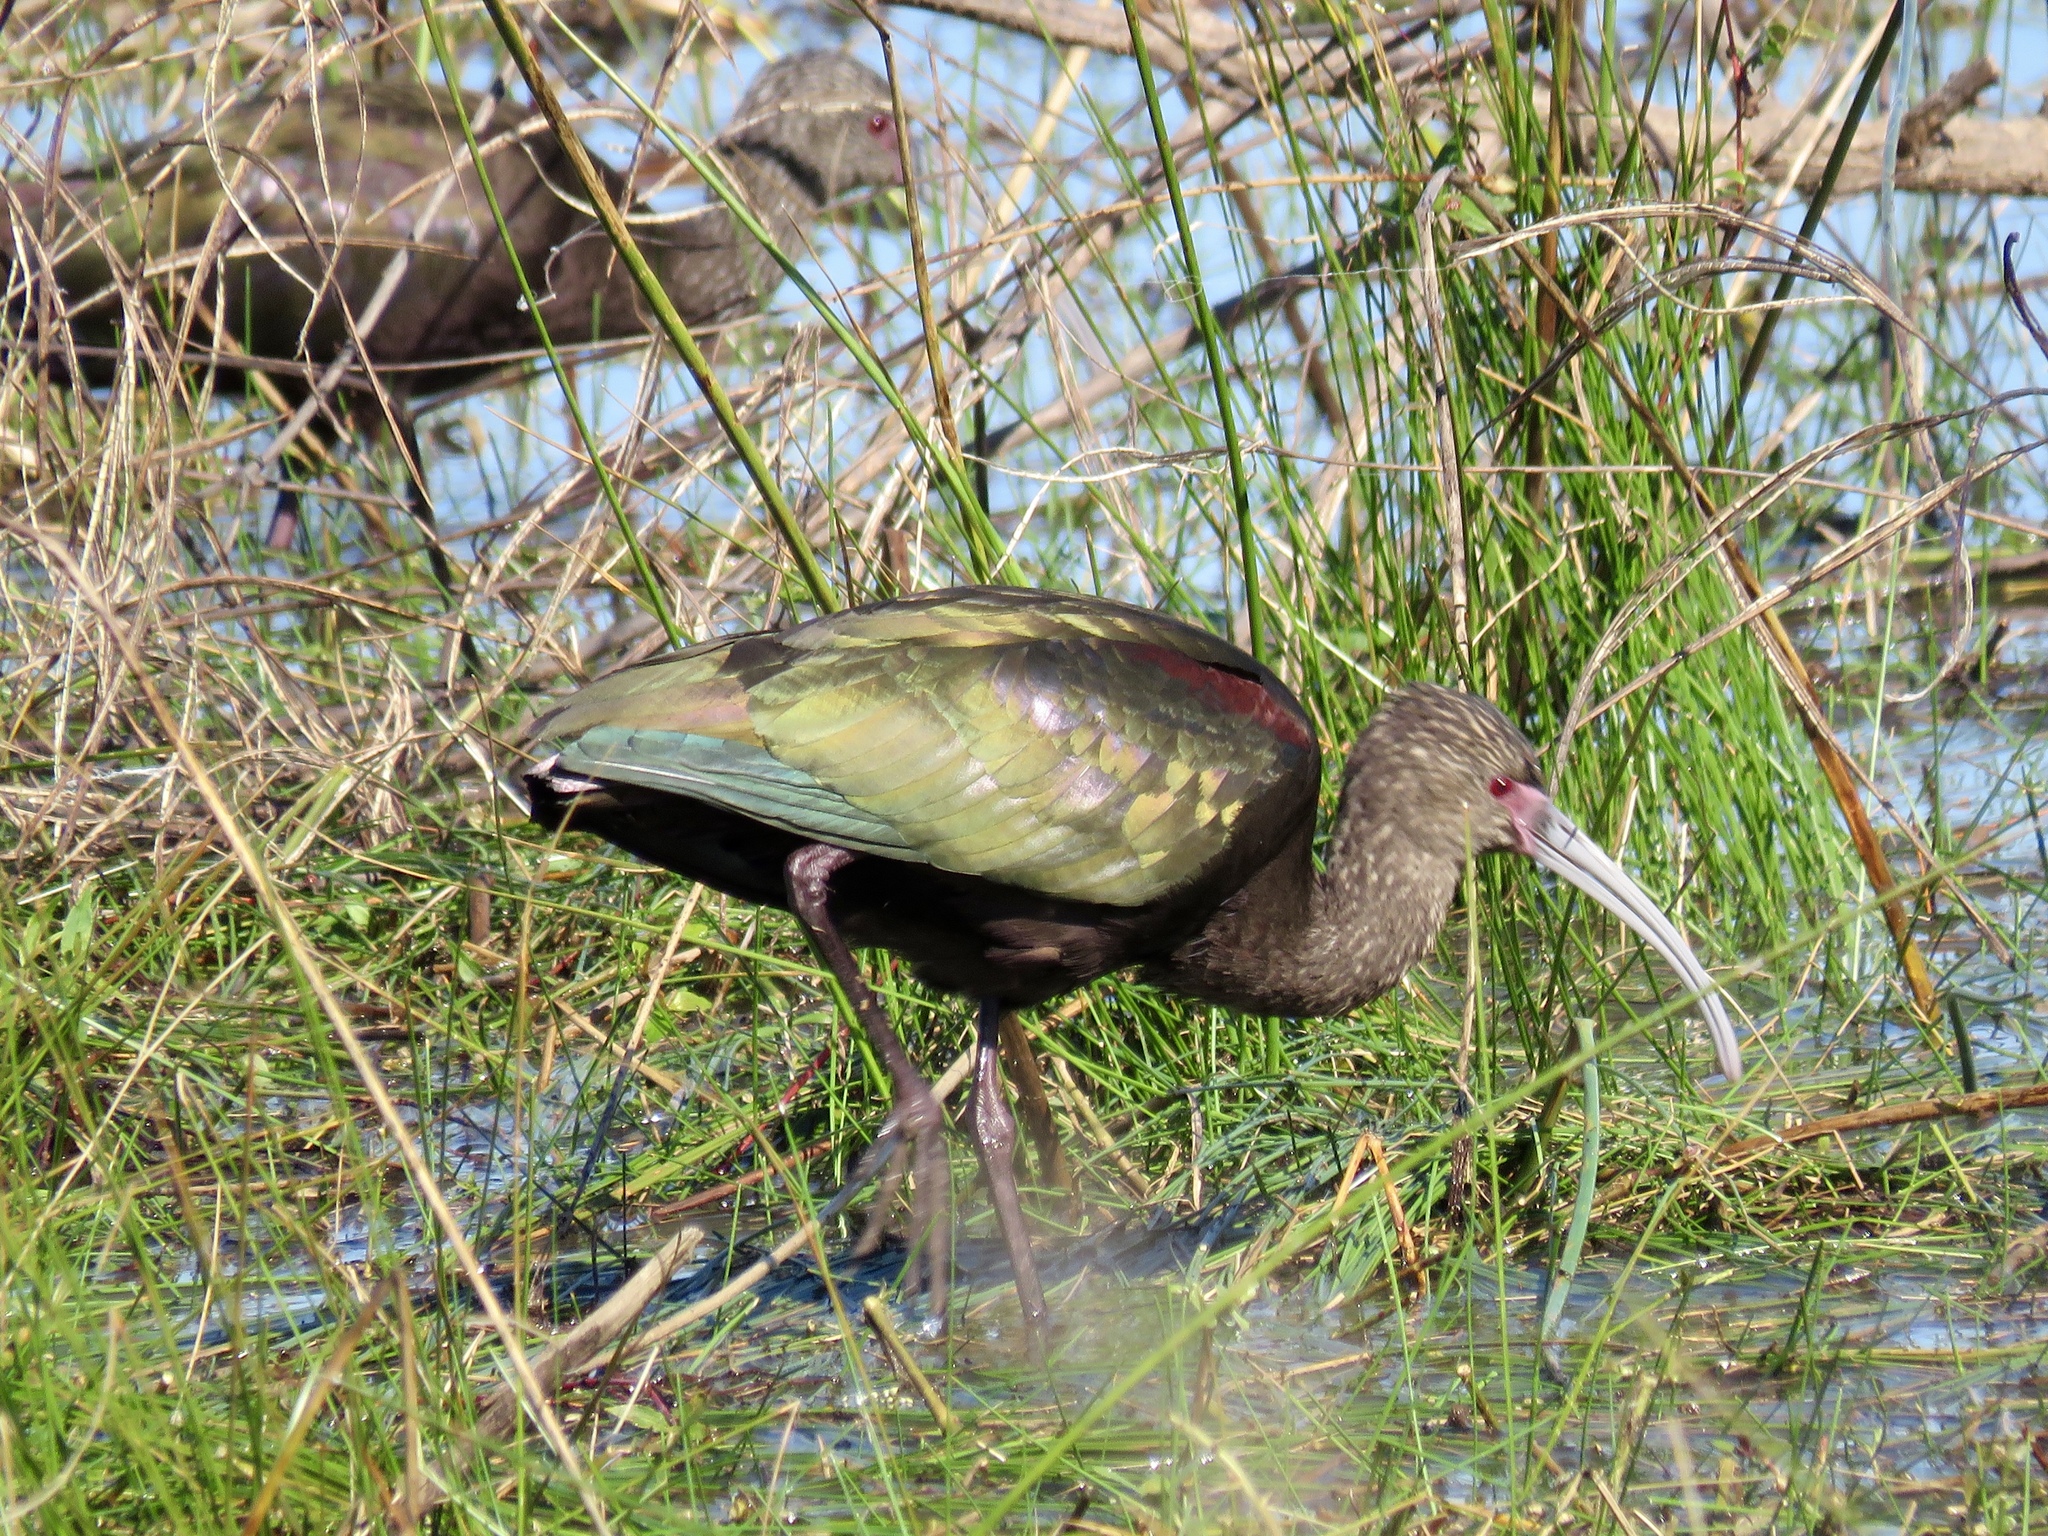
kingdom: Animalia
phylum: Chordata
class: Aves
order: Pelecaniformes
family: Threskiornithidae
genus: Plegadis
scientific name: Plegadis chihi
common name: White-faced ibis
